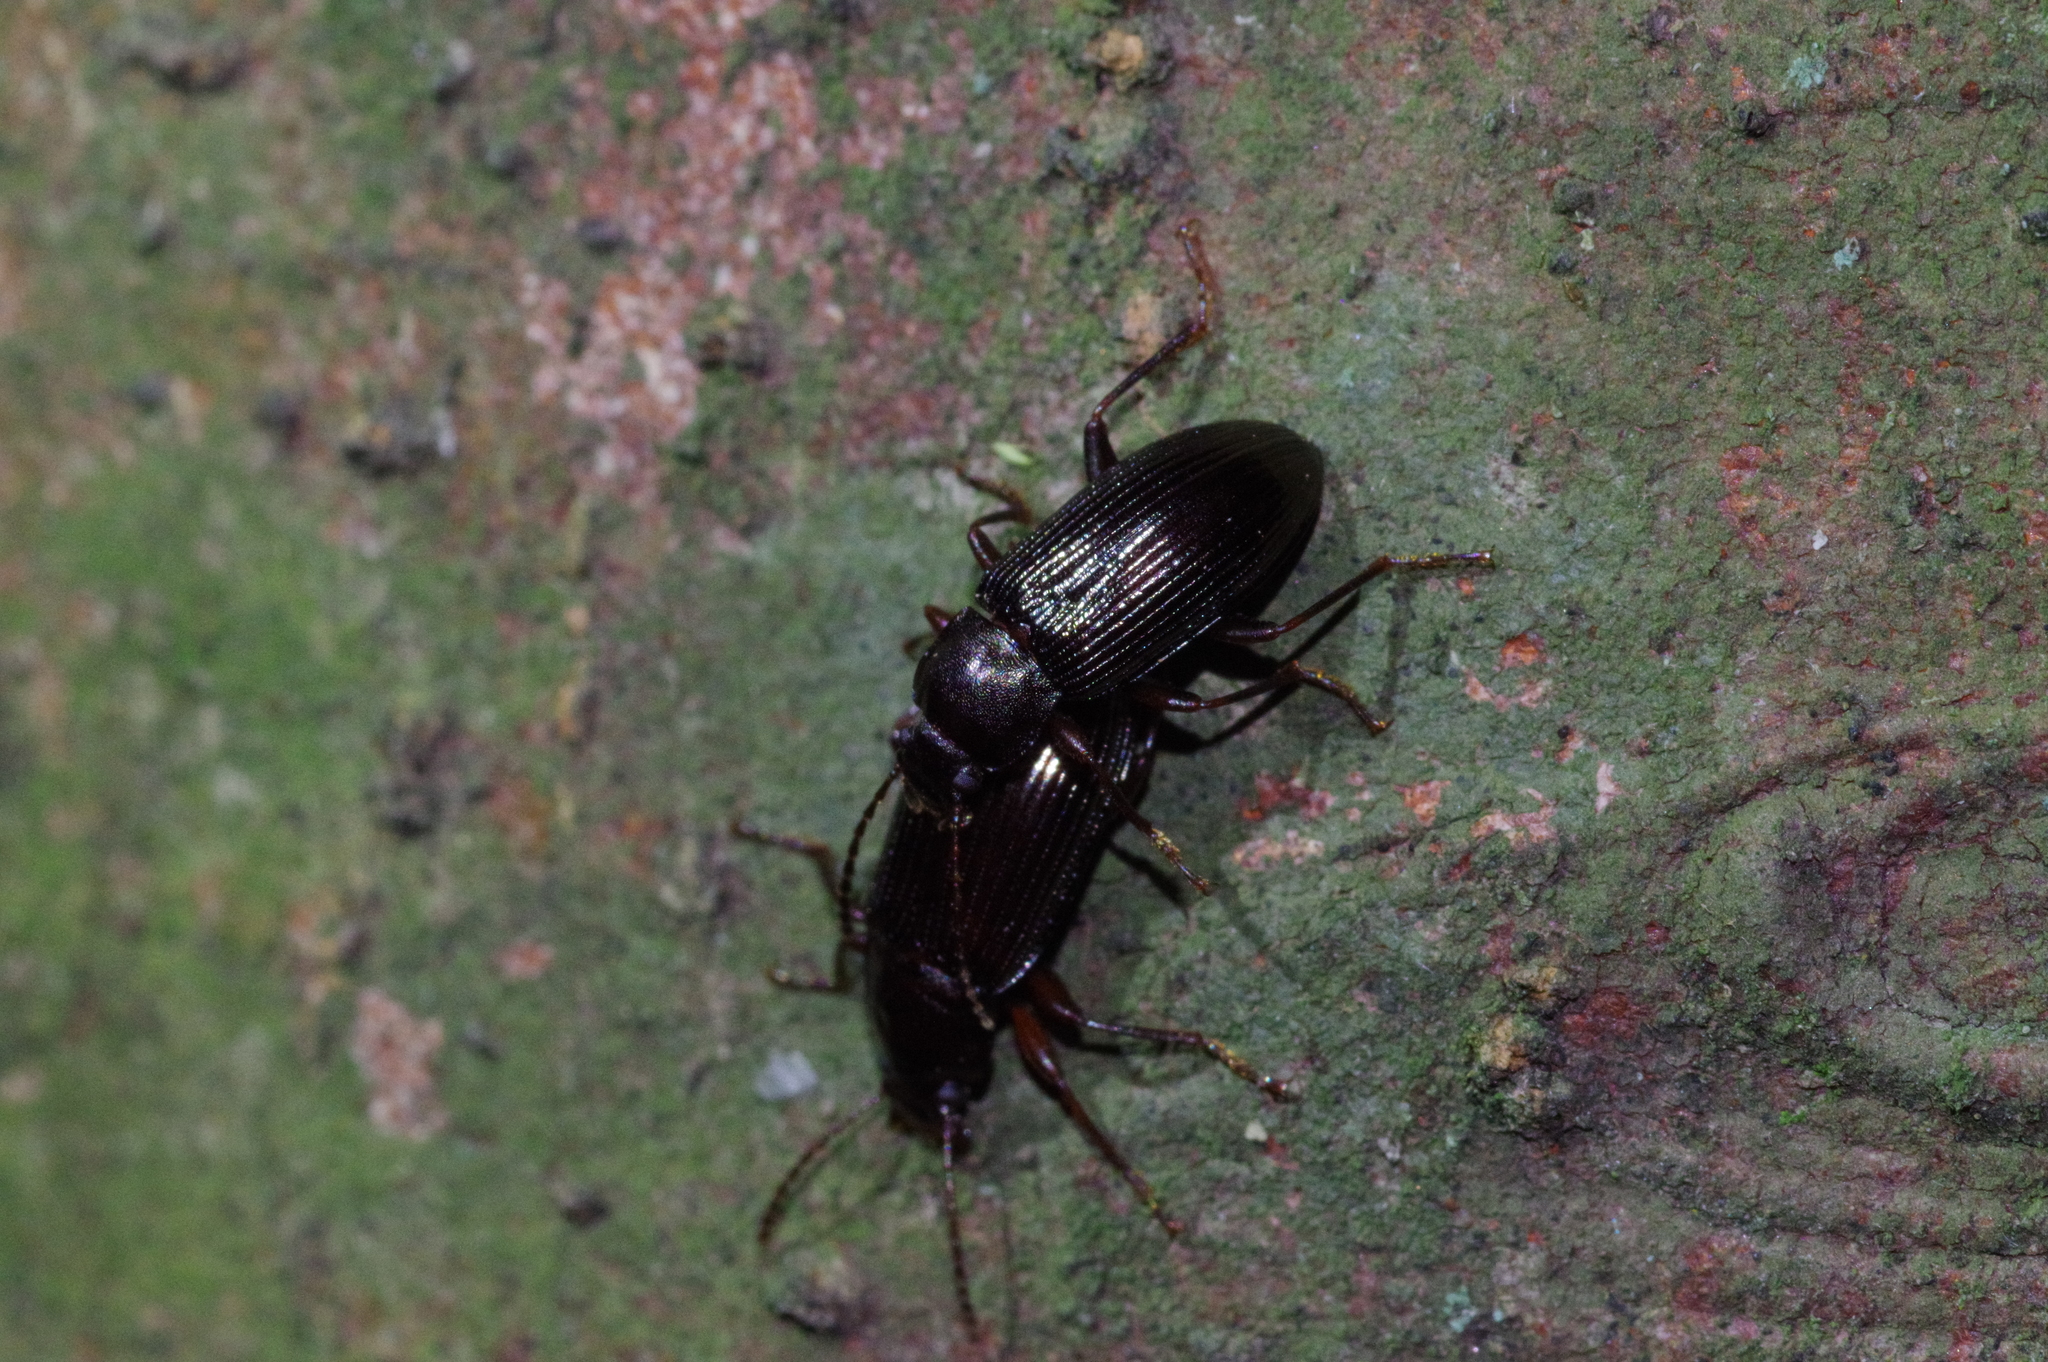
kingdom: Animalia
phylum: Arthropoda
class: Insecta
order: Coleoptera
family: Tenebrionidae
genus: Nalassus
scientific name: Nalassus
